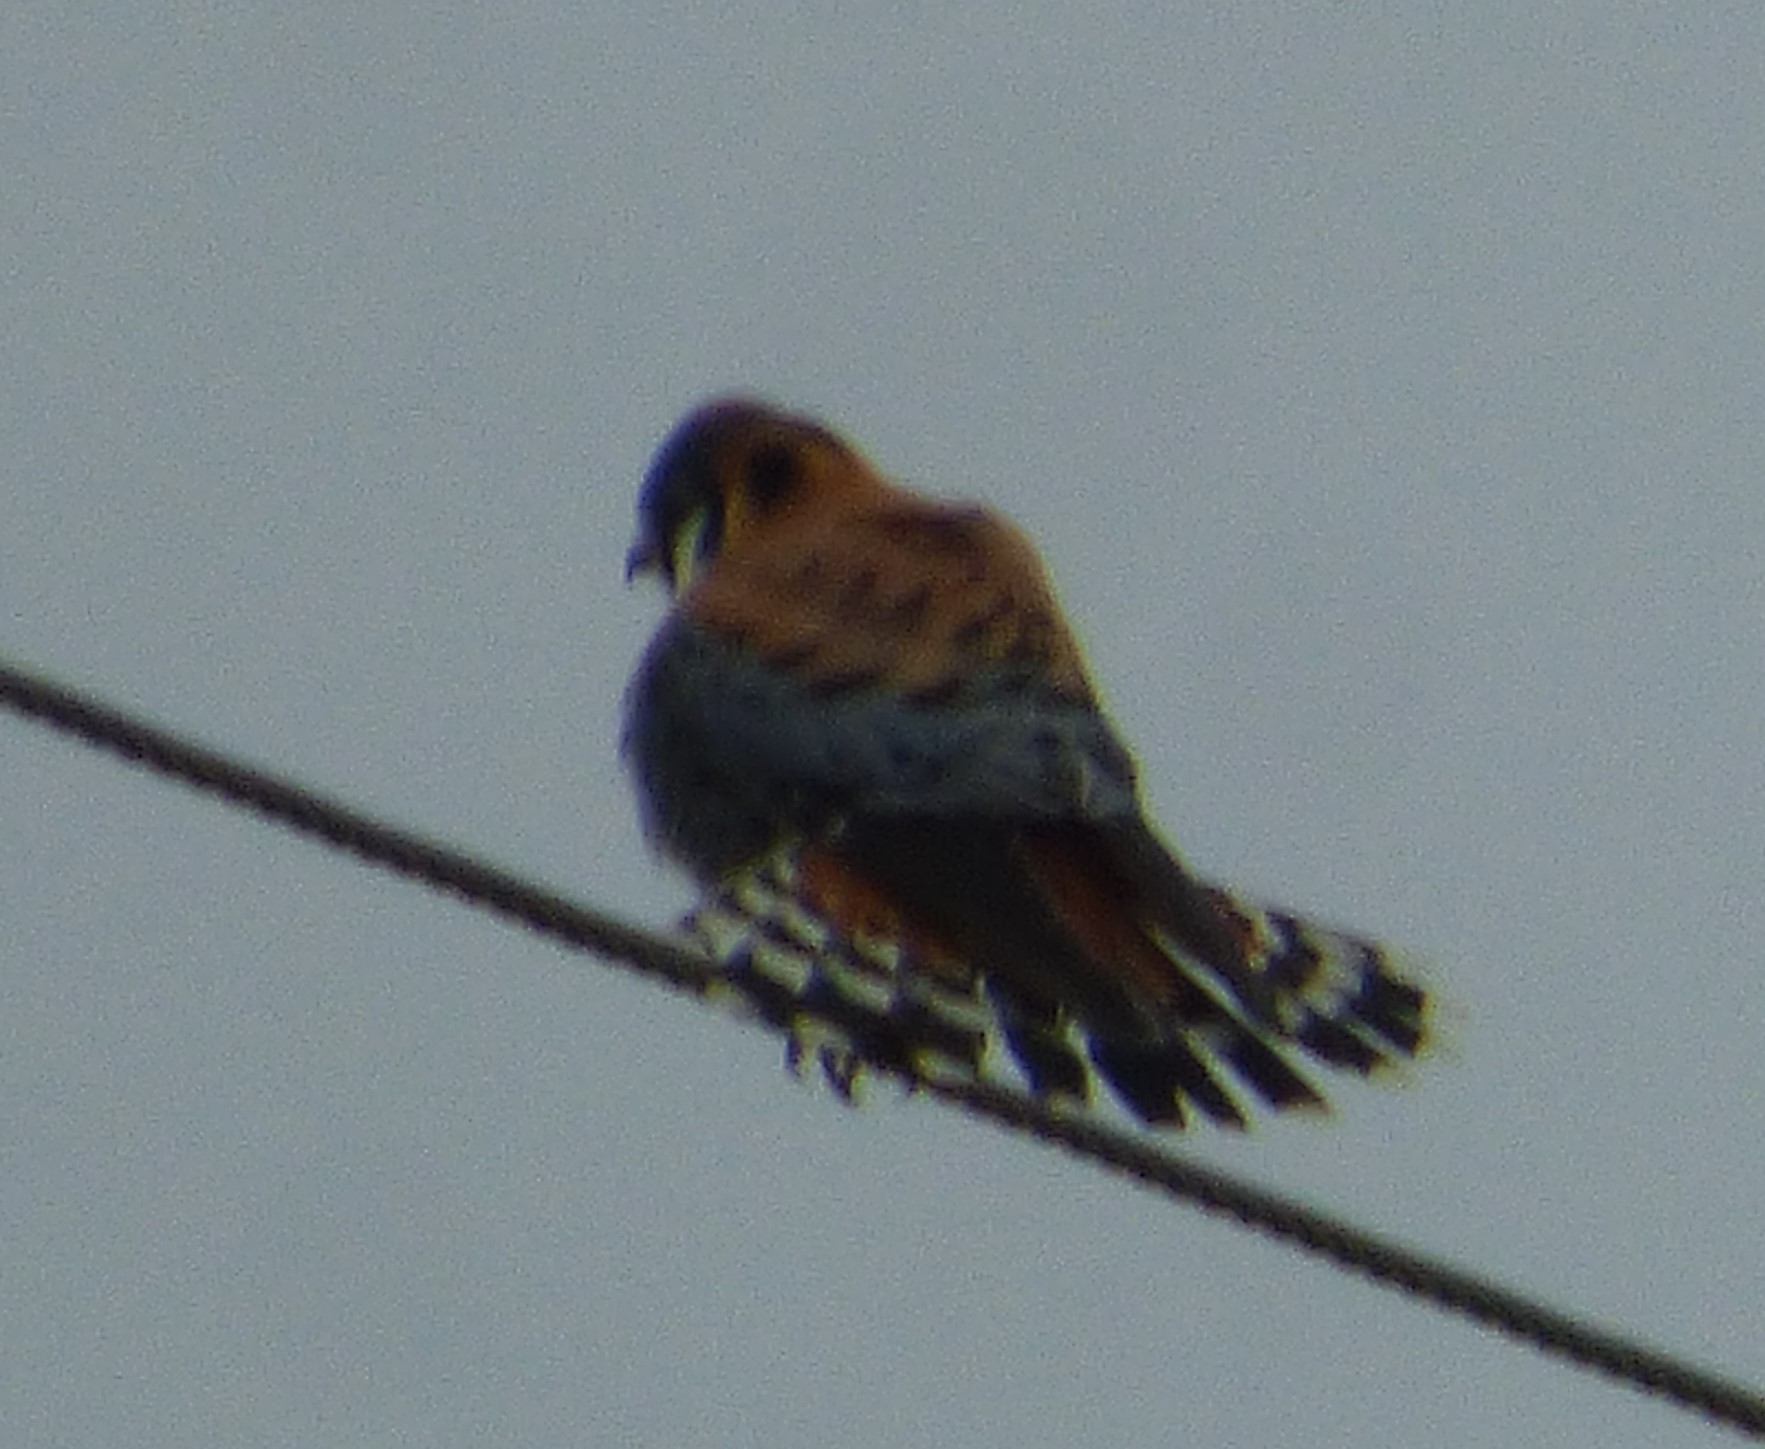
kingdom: Animalia
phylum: Chordata
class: Aves
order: Falconiformes
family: Falconidae
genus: Falco
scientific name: Falco sparverius
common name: American kestrel
